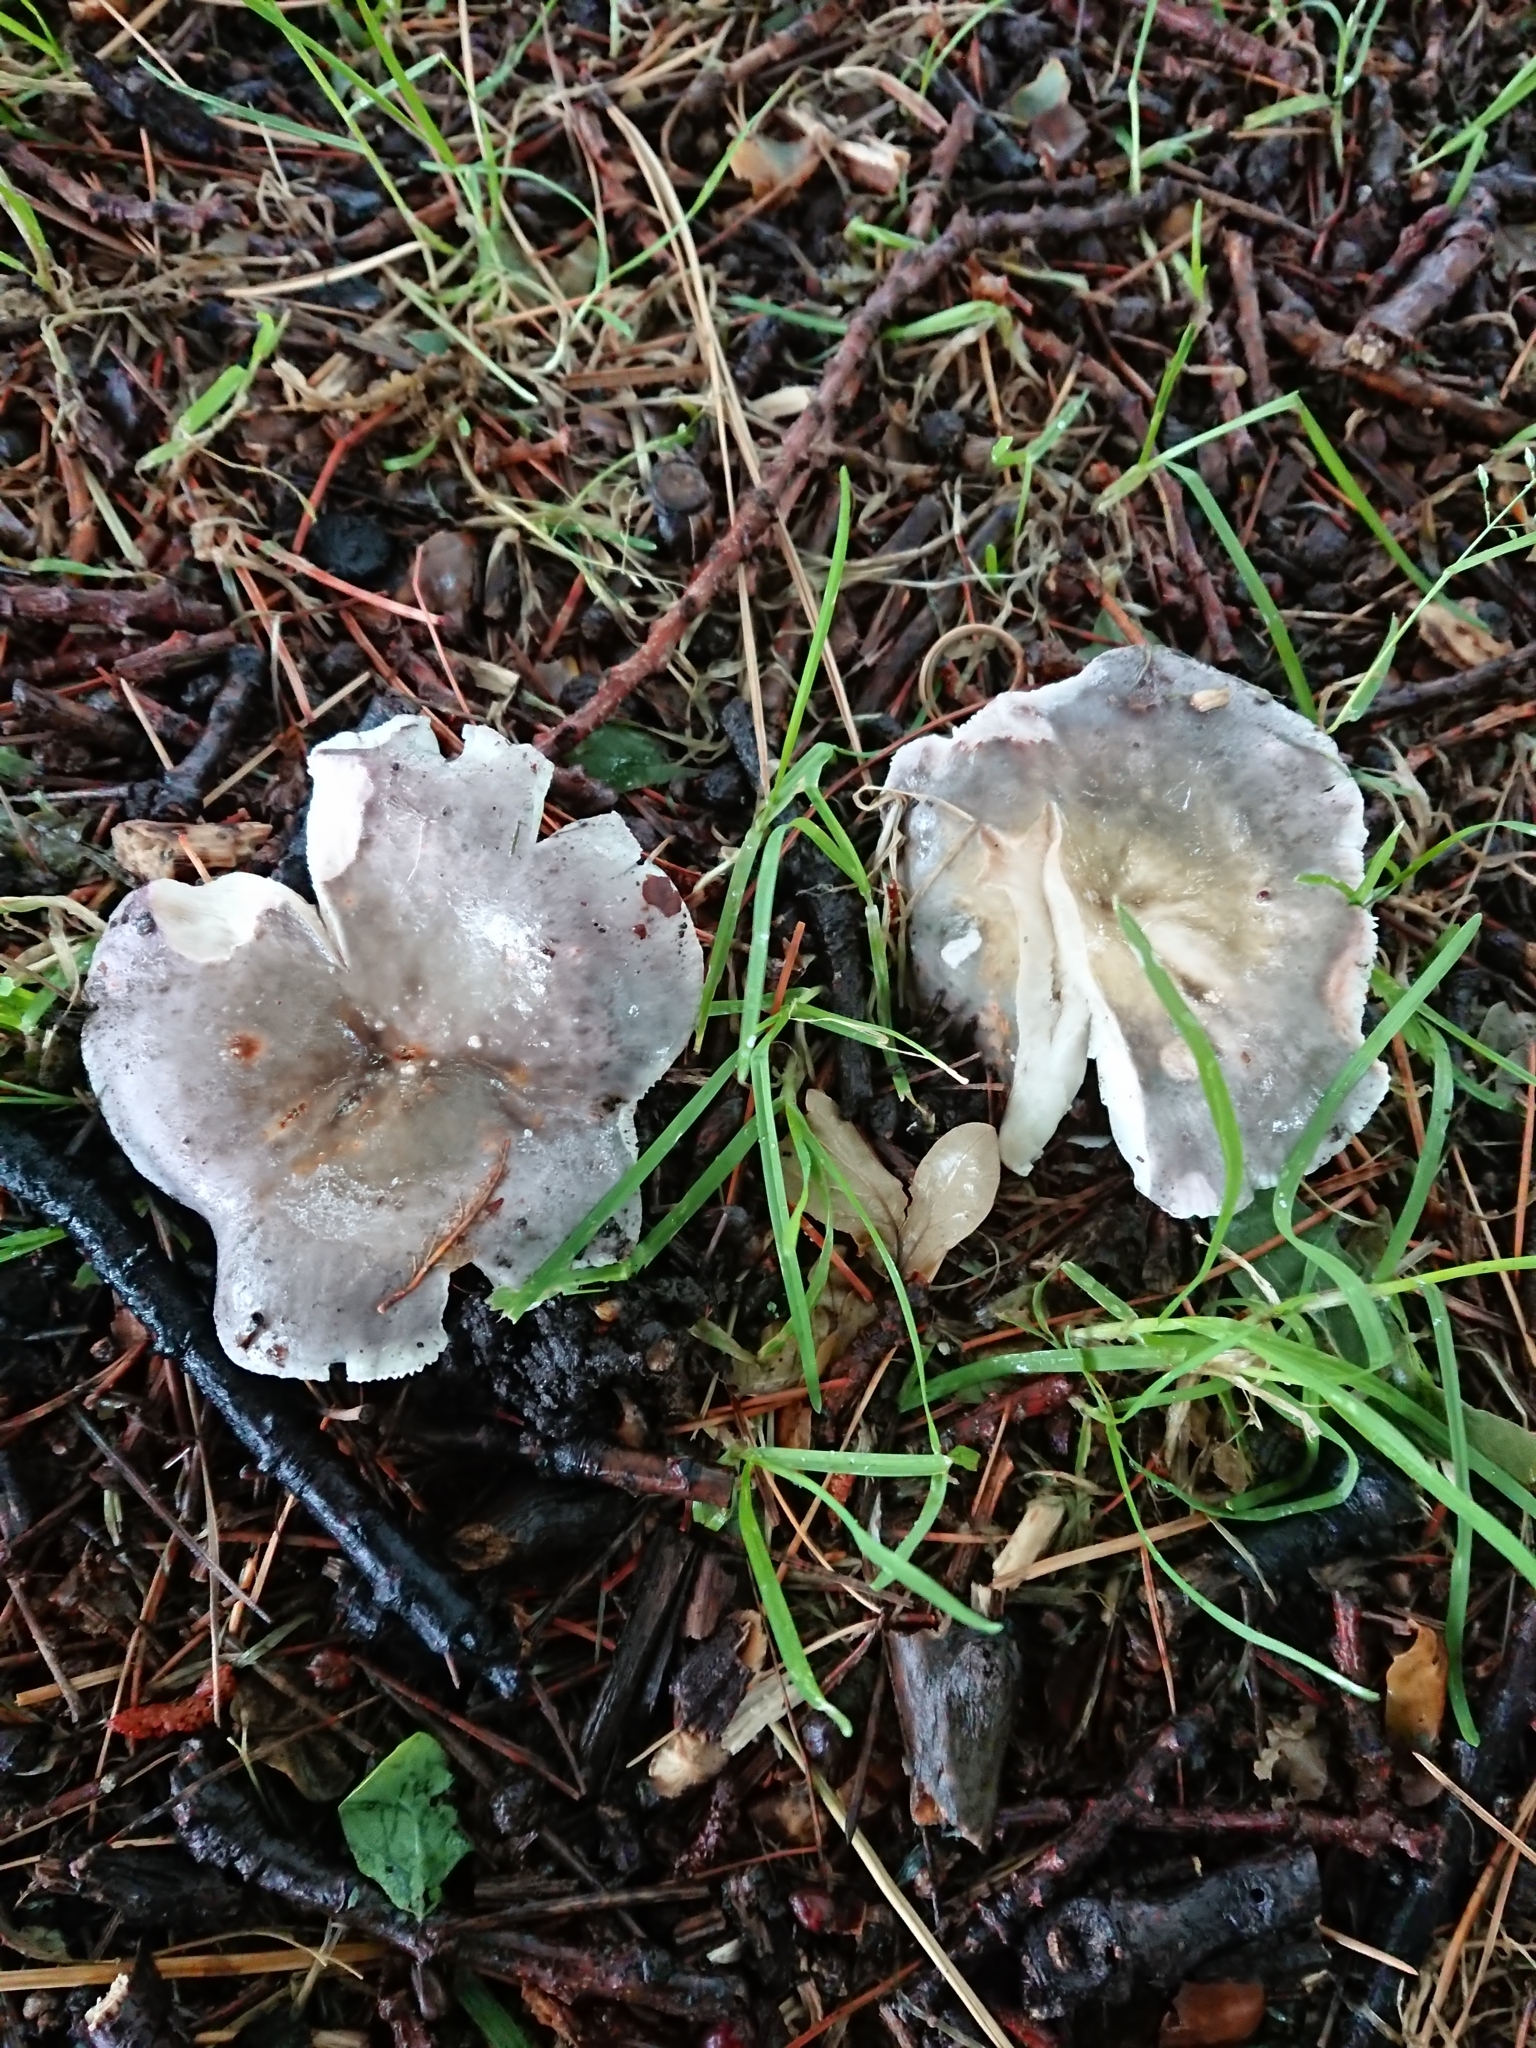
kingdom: Fungi
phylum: Basidiomycota
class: Agaricomycetes
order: Russulales
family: Russulaceae
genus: Russula
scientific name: Russula grisea
